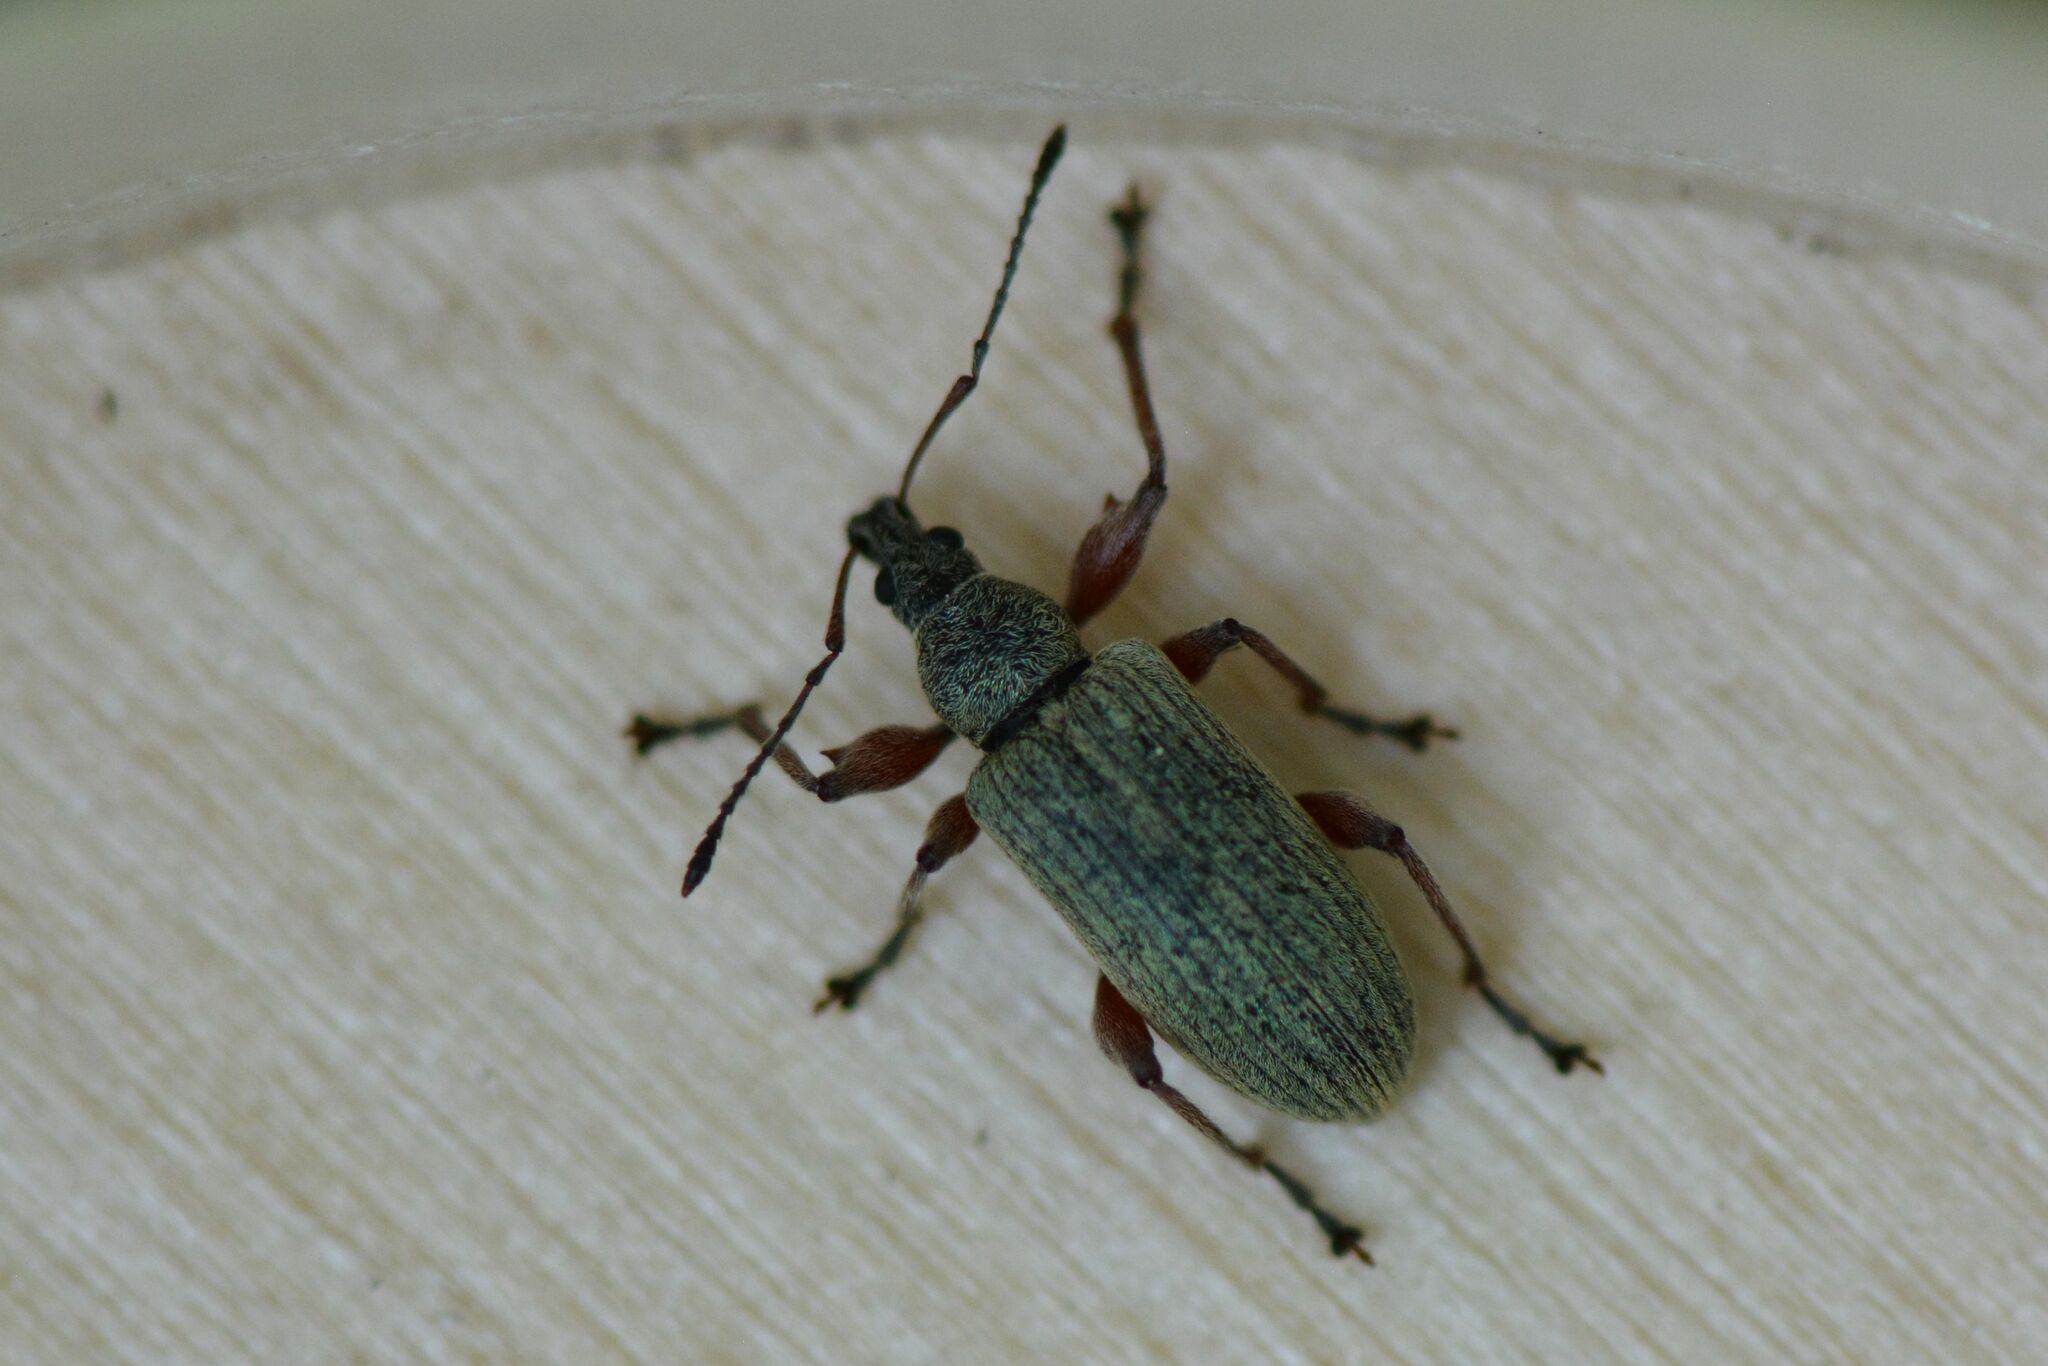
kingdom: Animalia
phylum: Arthropoda
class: Insecta
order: Coleoptera
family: Curculionidae
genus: Phyllobius
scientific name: Phyllobius glaucus
